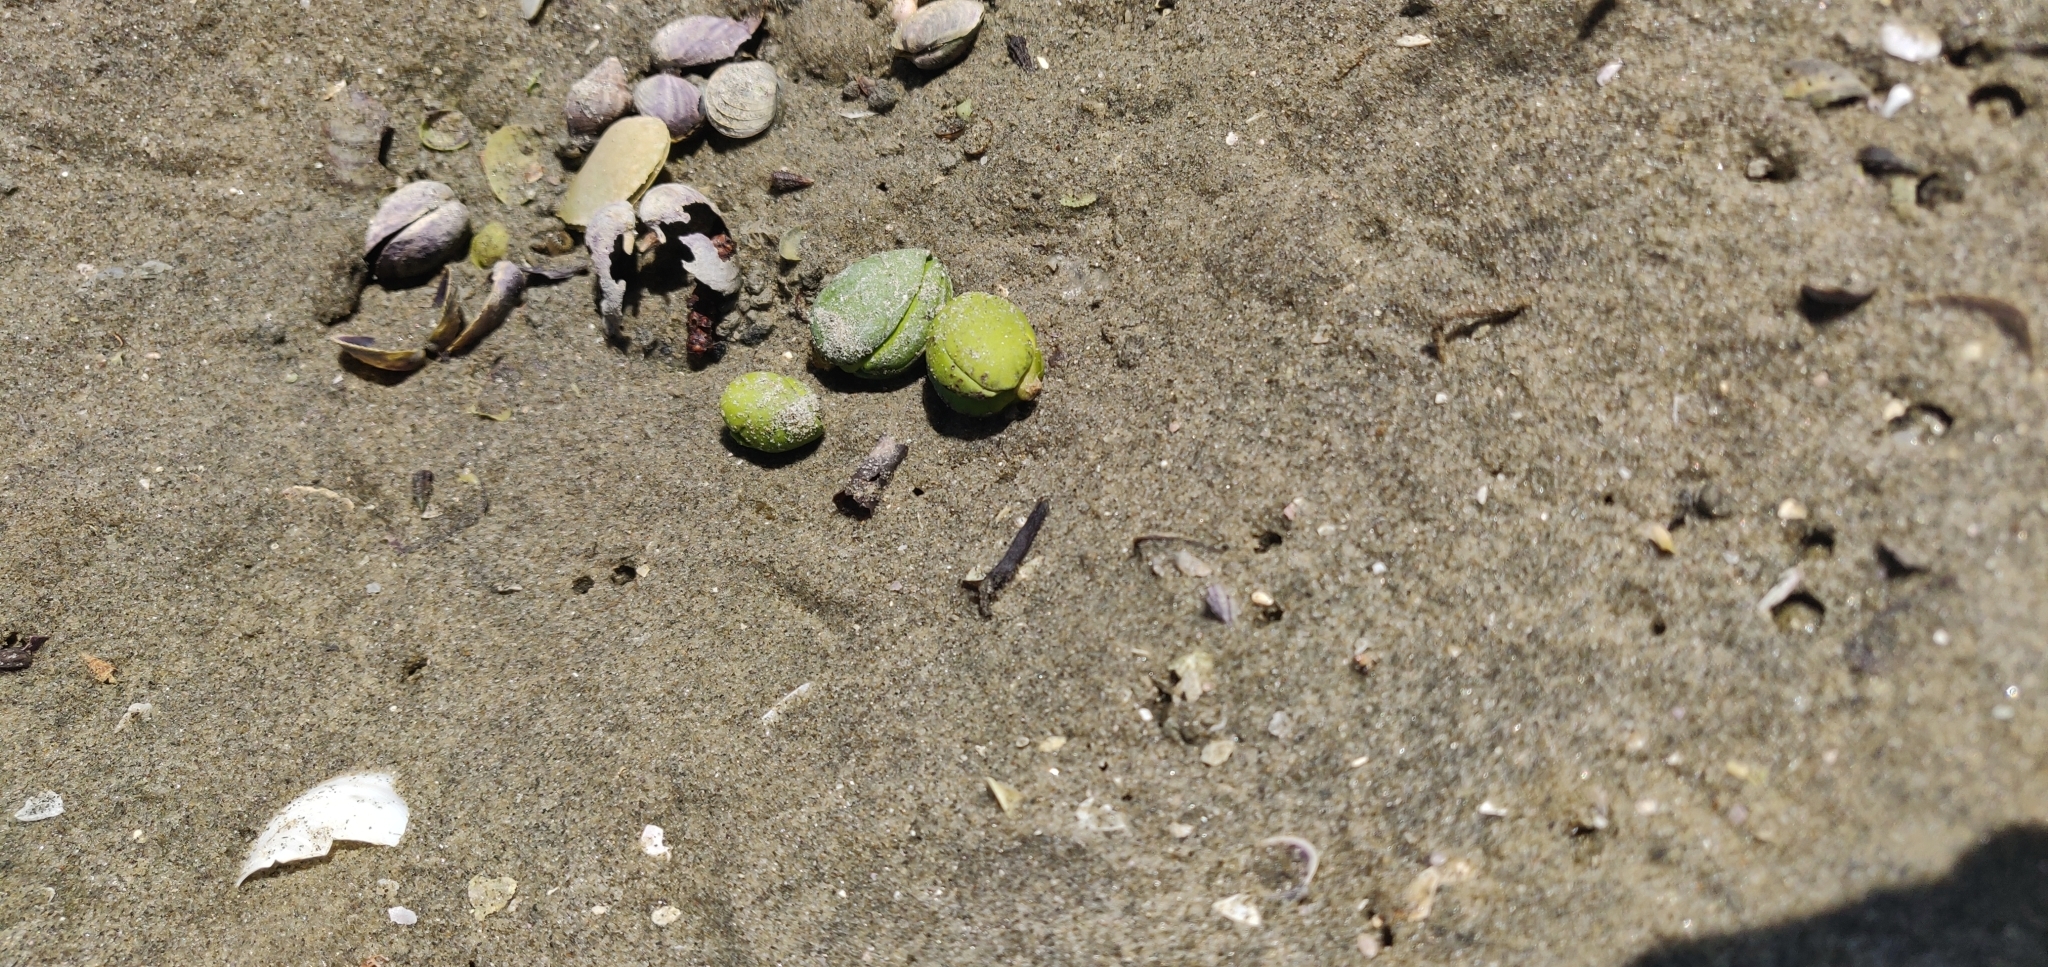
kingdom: Plantae
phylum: Tracheophyta
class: Magnoliopsida
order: Lamiales
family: Acanthaceae
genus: Avicennia
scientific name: Avicennia marina
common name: Gray mangrove
